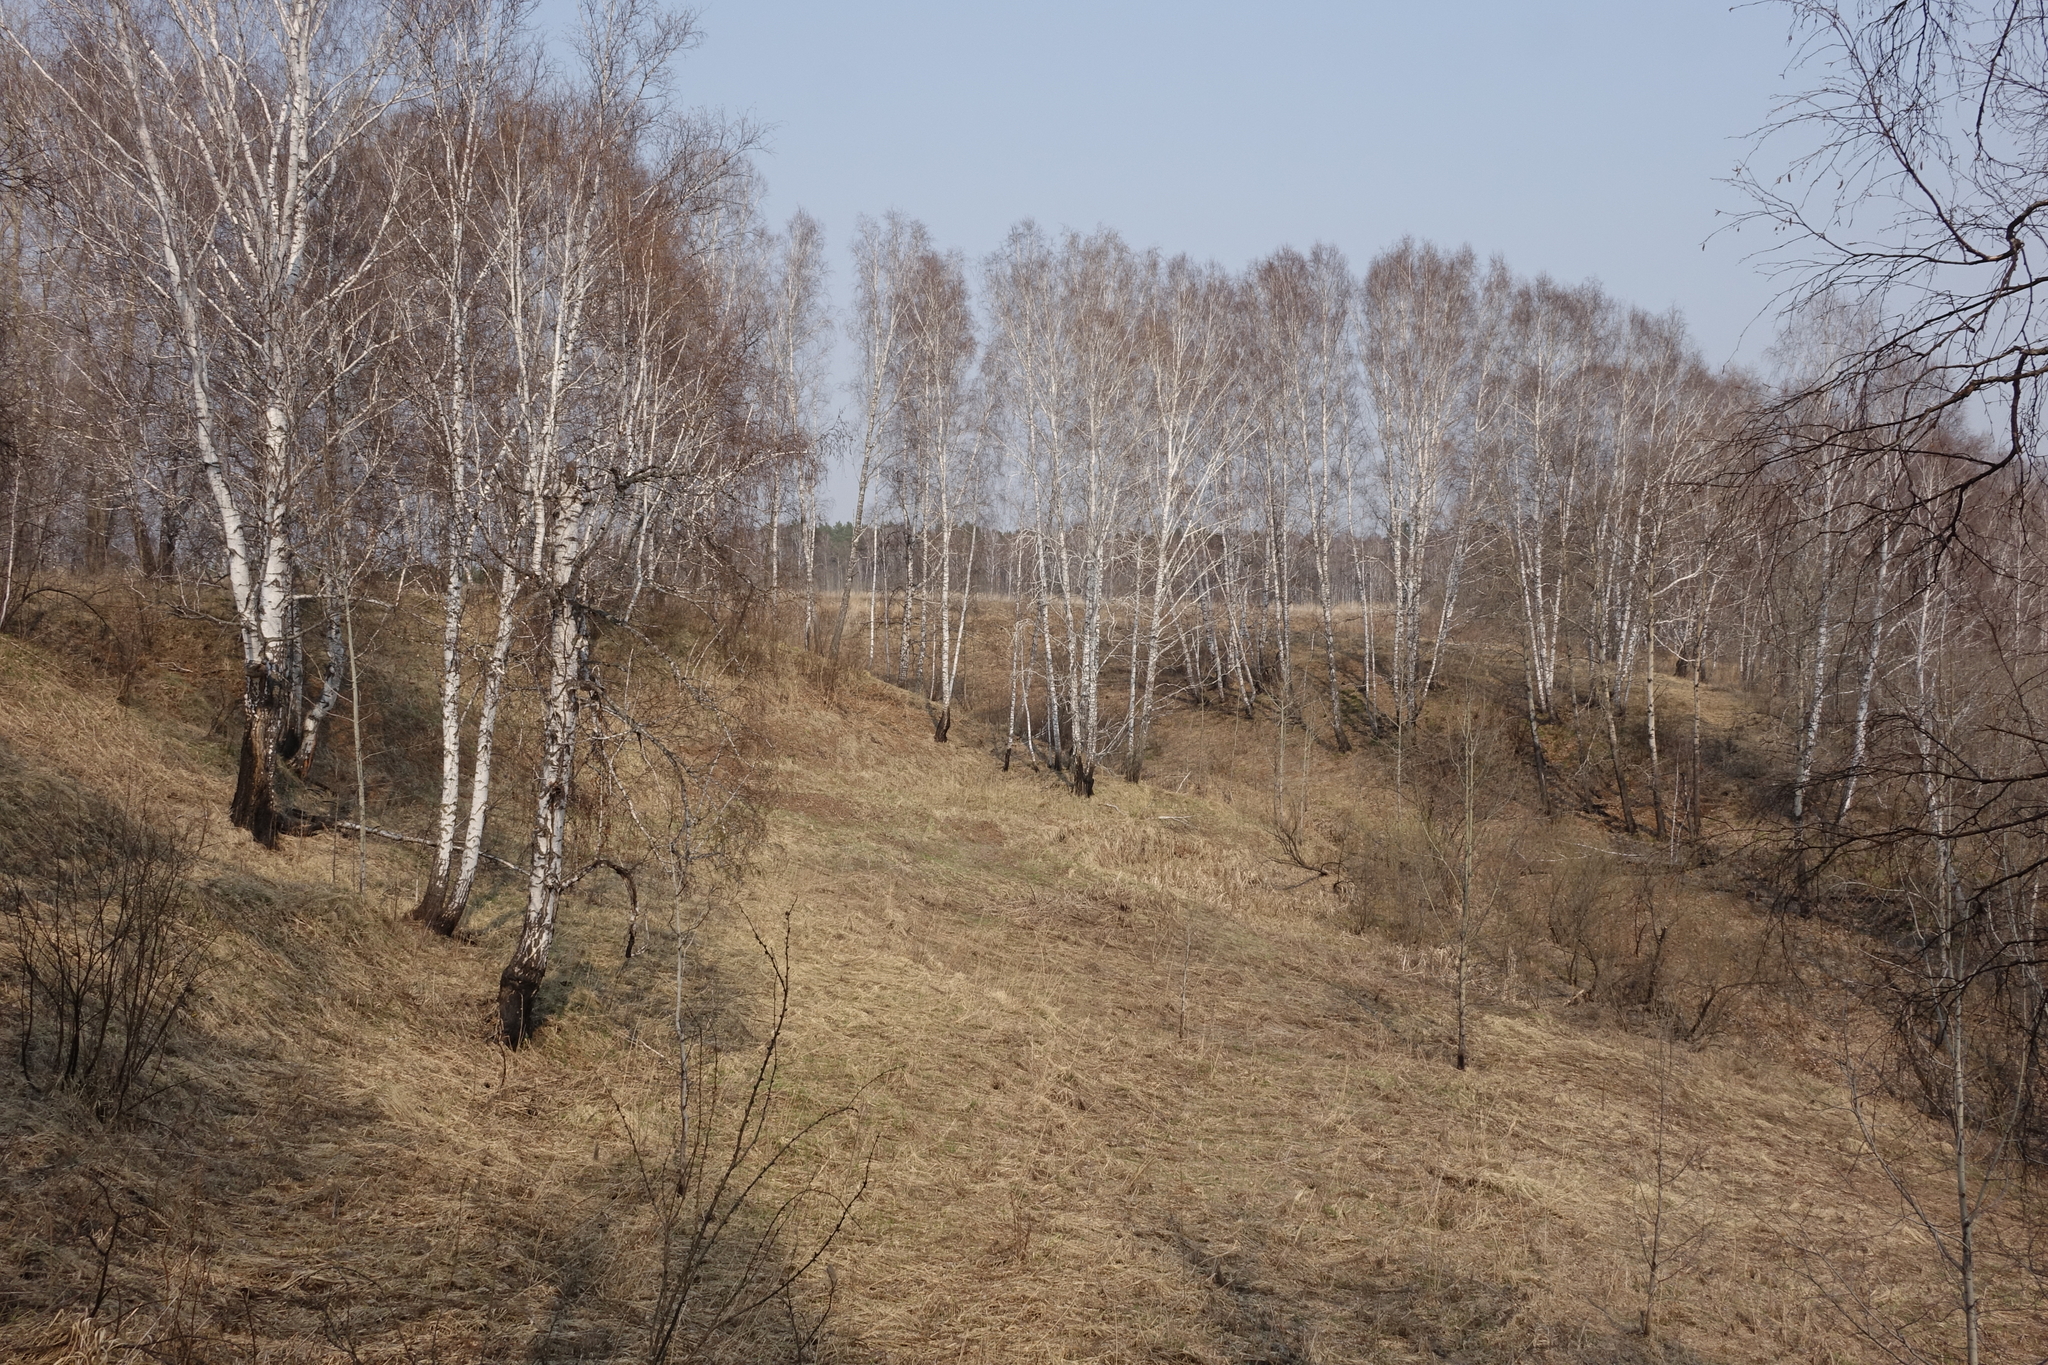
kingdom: Plantae
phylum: Tracheophyta
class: Magnoliopsida
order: Fagales
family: Betulaceae
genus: Betula
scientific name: Betula pendula
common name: Silver birch
